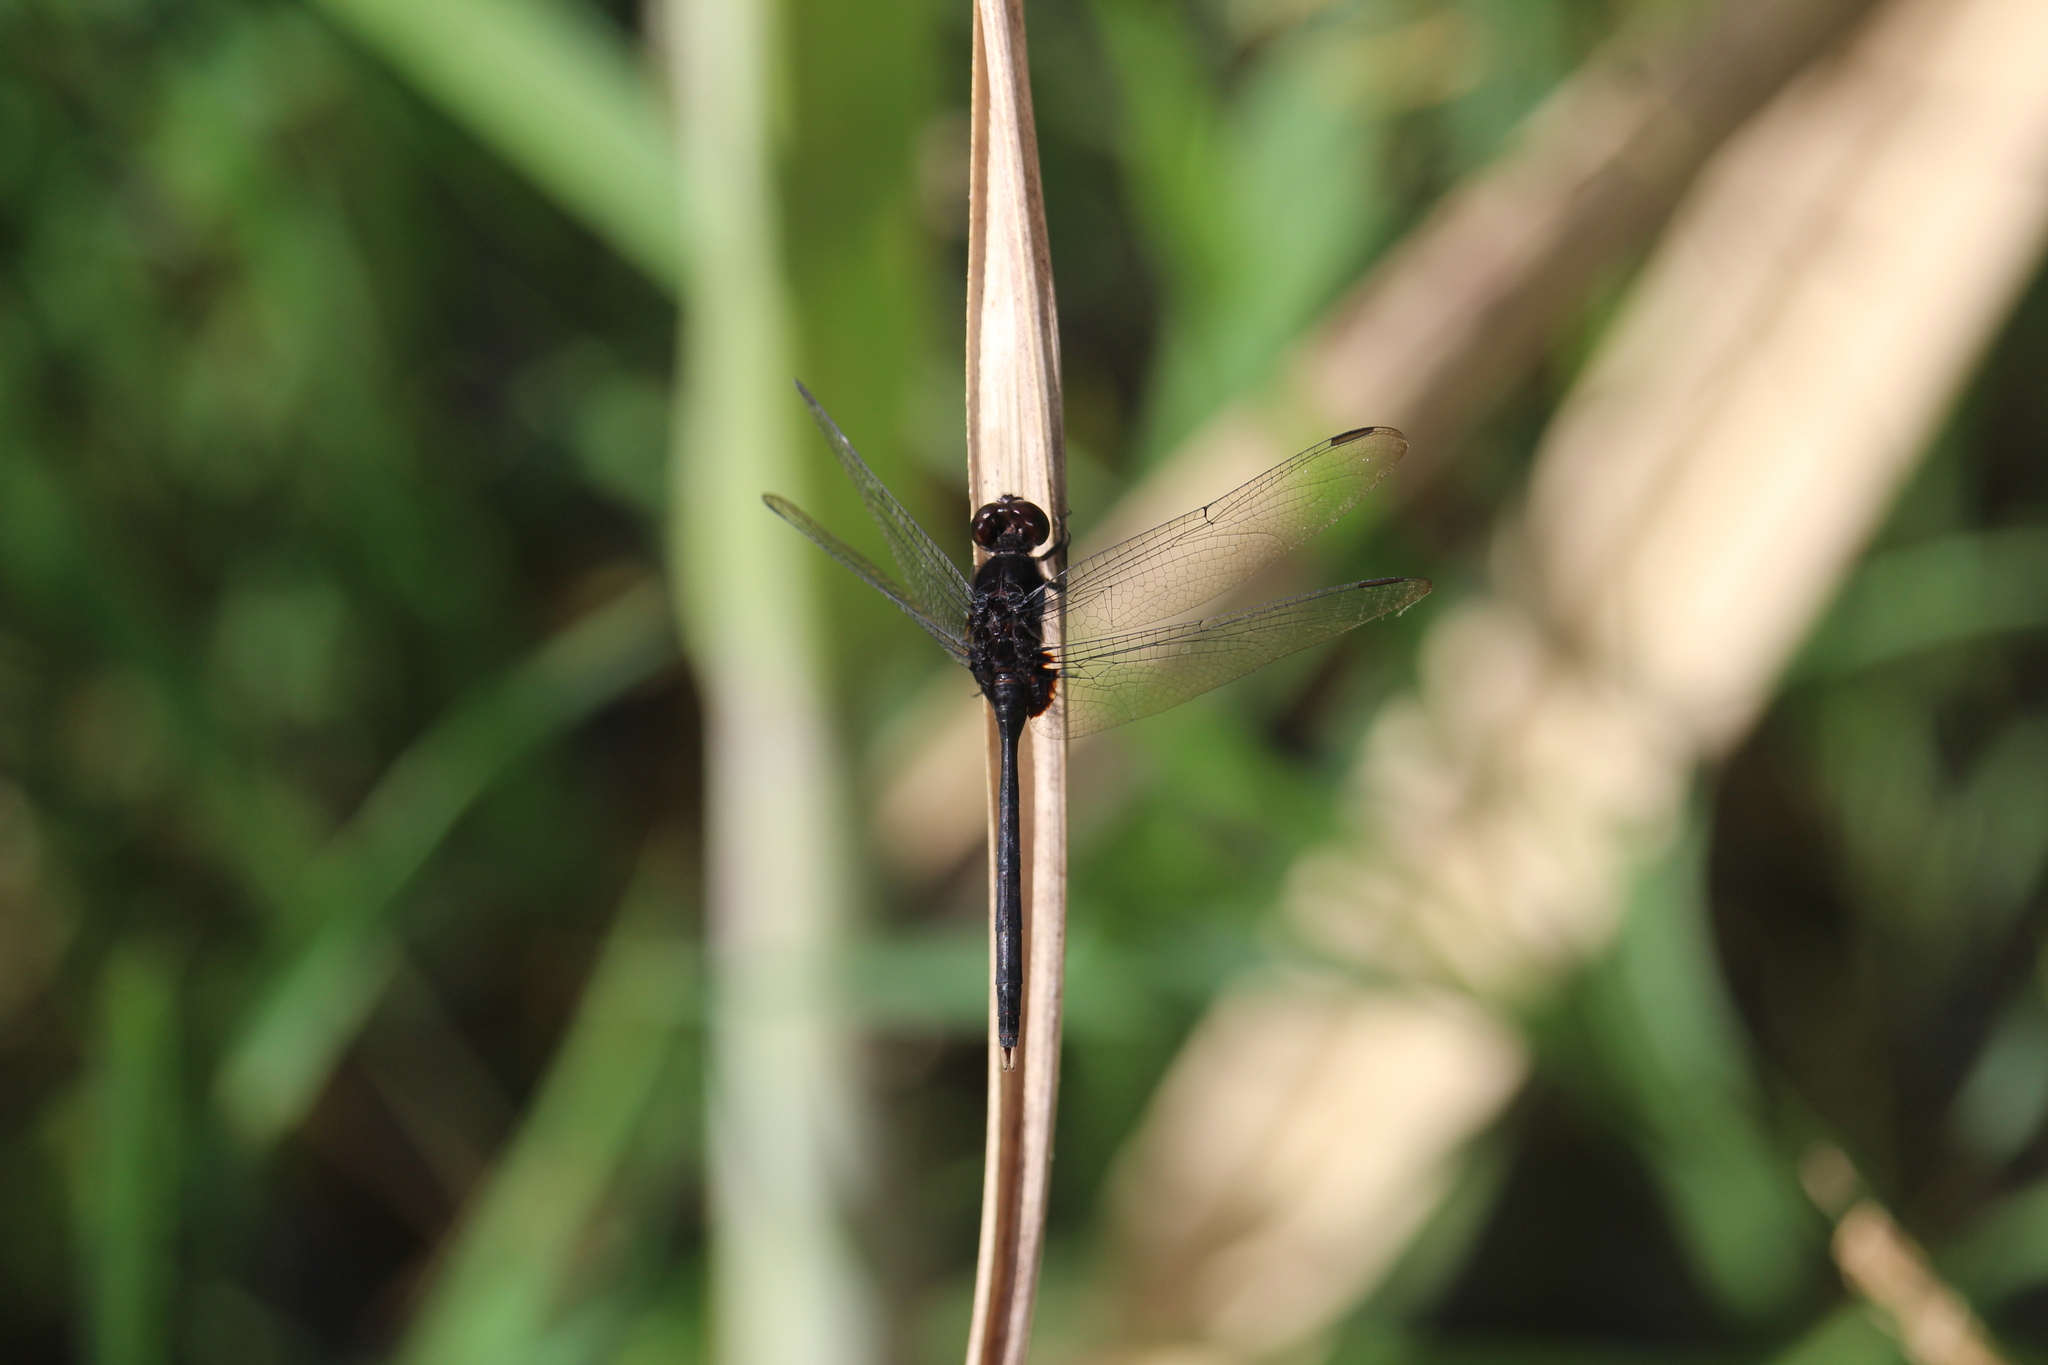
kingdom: Animalia
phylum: Arthropoda
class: Insecta
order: Odonata
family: Libellulidae
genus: Erythemis
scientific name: Erythemis plebeja
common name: Pin-tailed pondhawk
